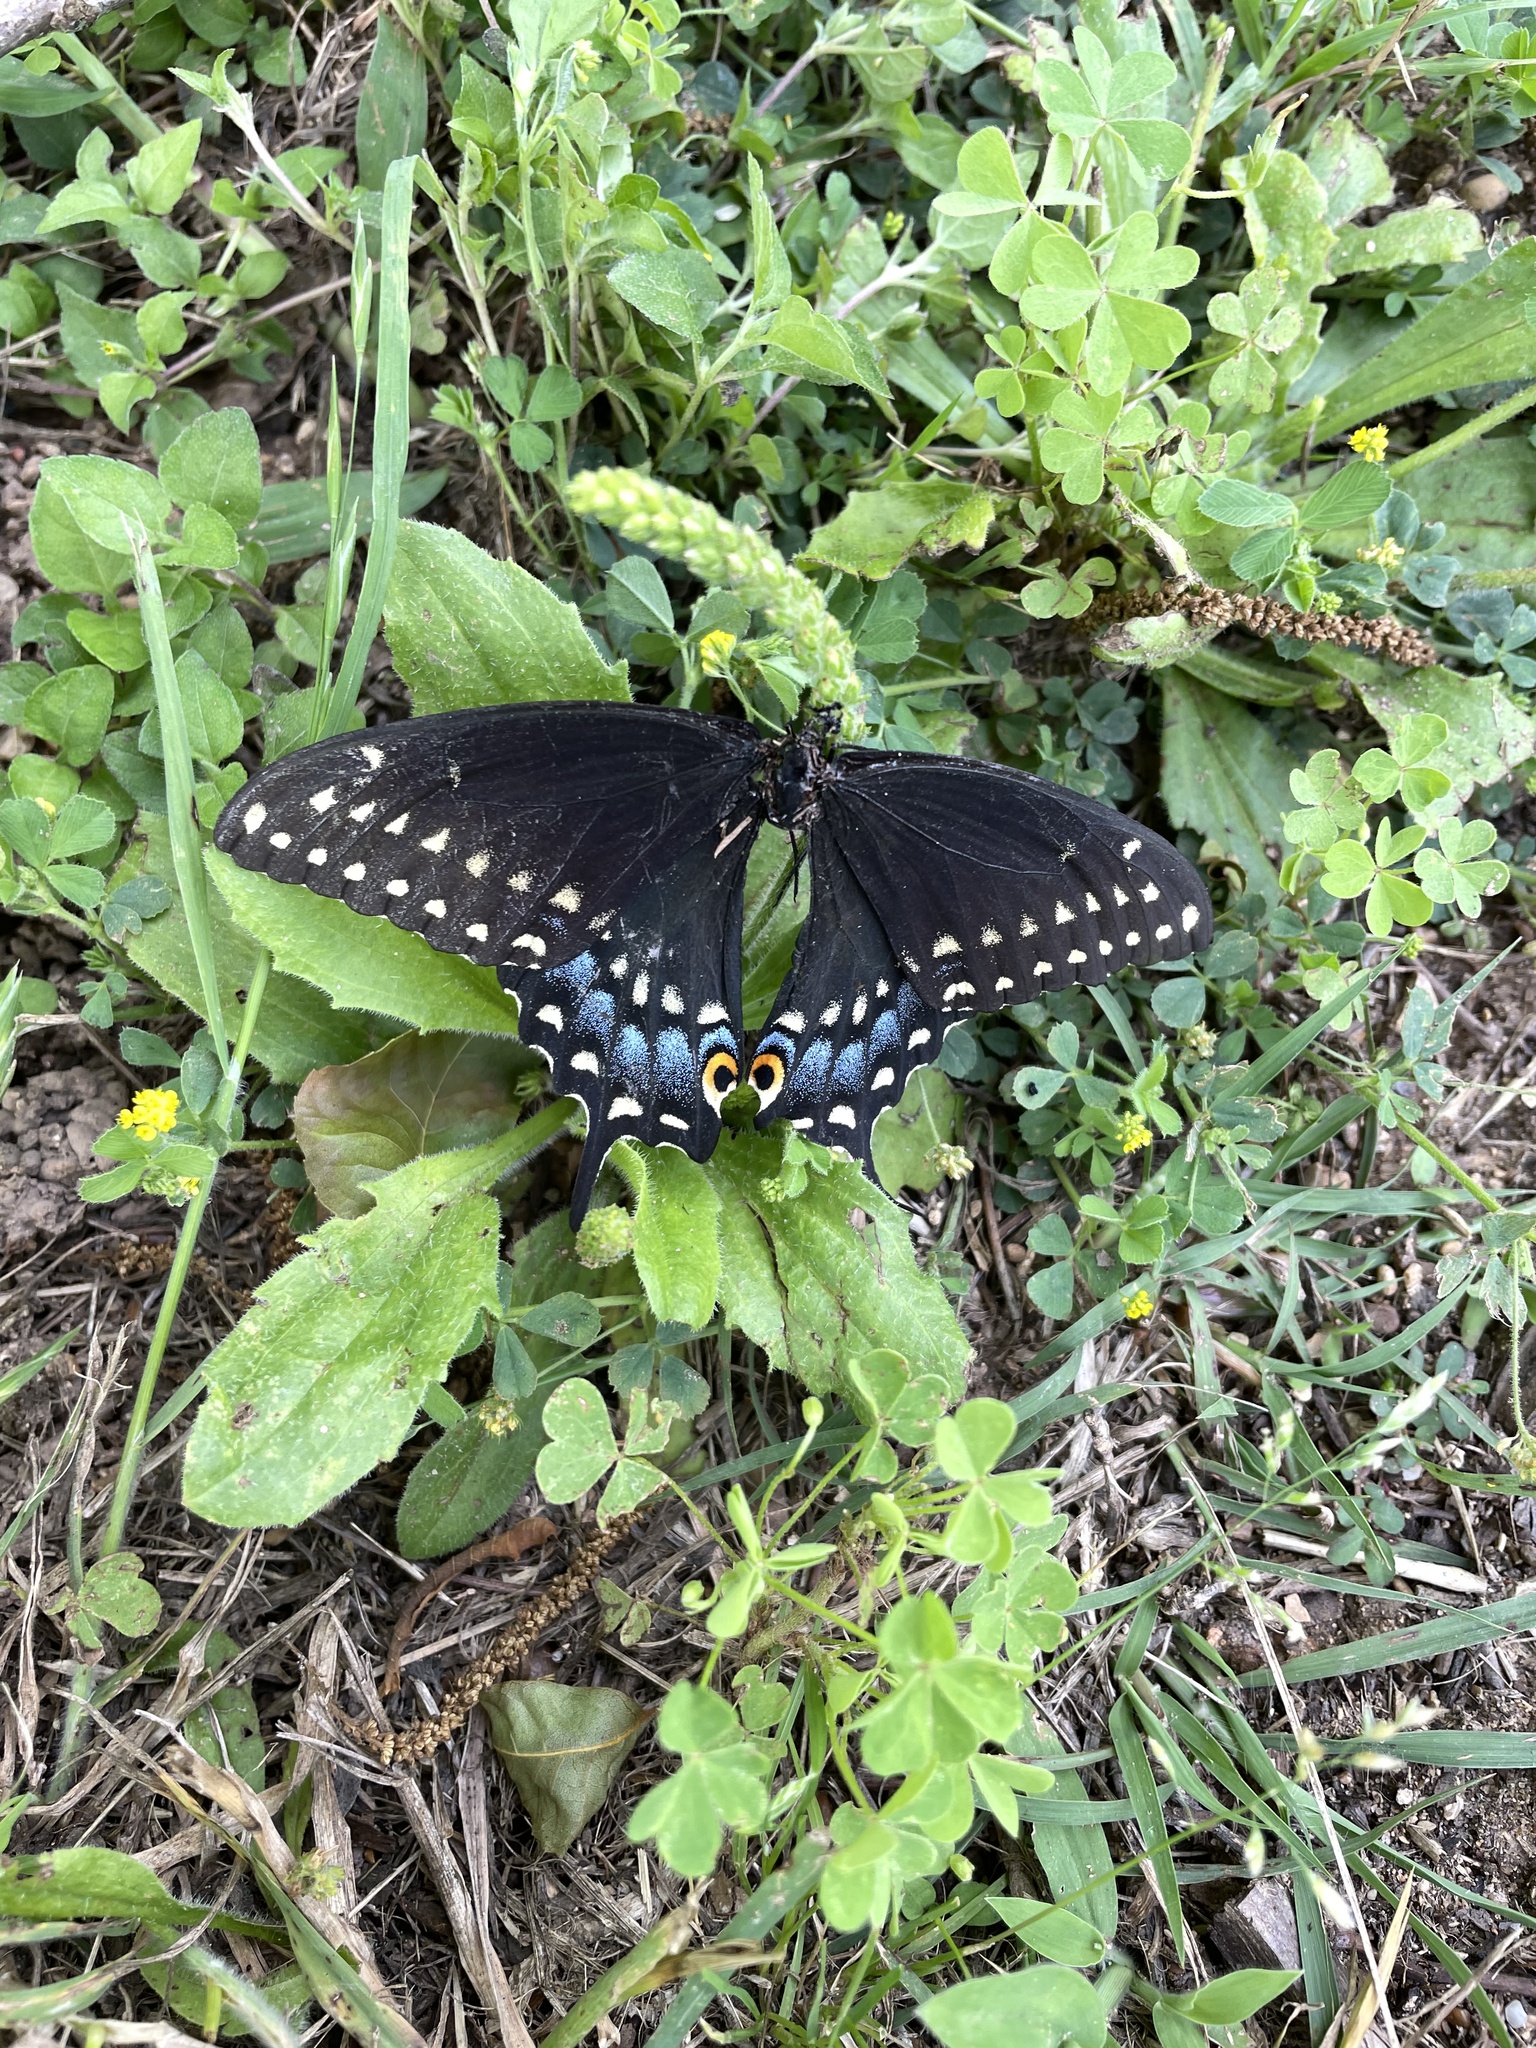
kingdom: Animalia
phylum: Arthropoda
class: Insecta
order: Lepidoptera
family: Papilionidae
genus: Papilio
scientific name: Papilio polyxenes
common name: Black swallowtail
